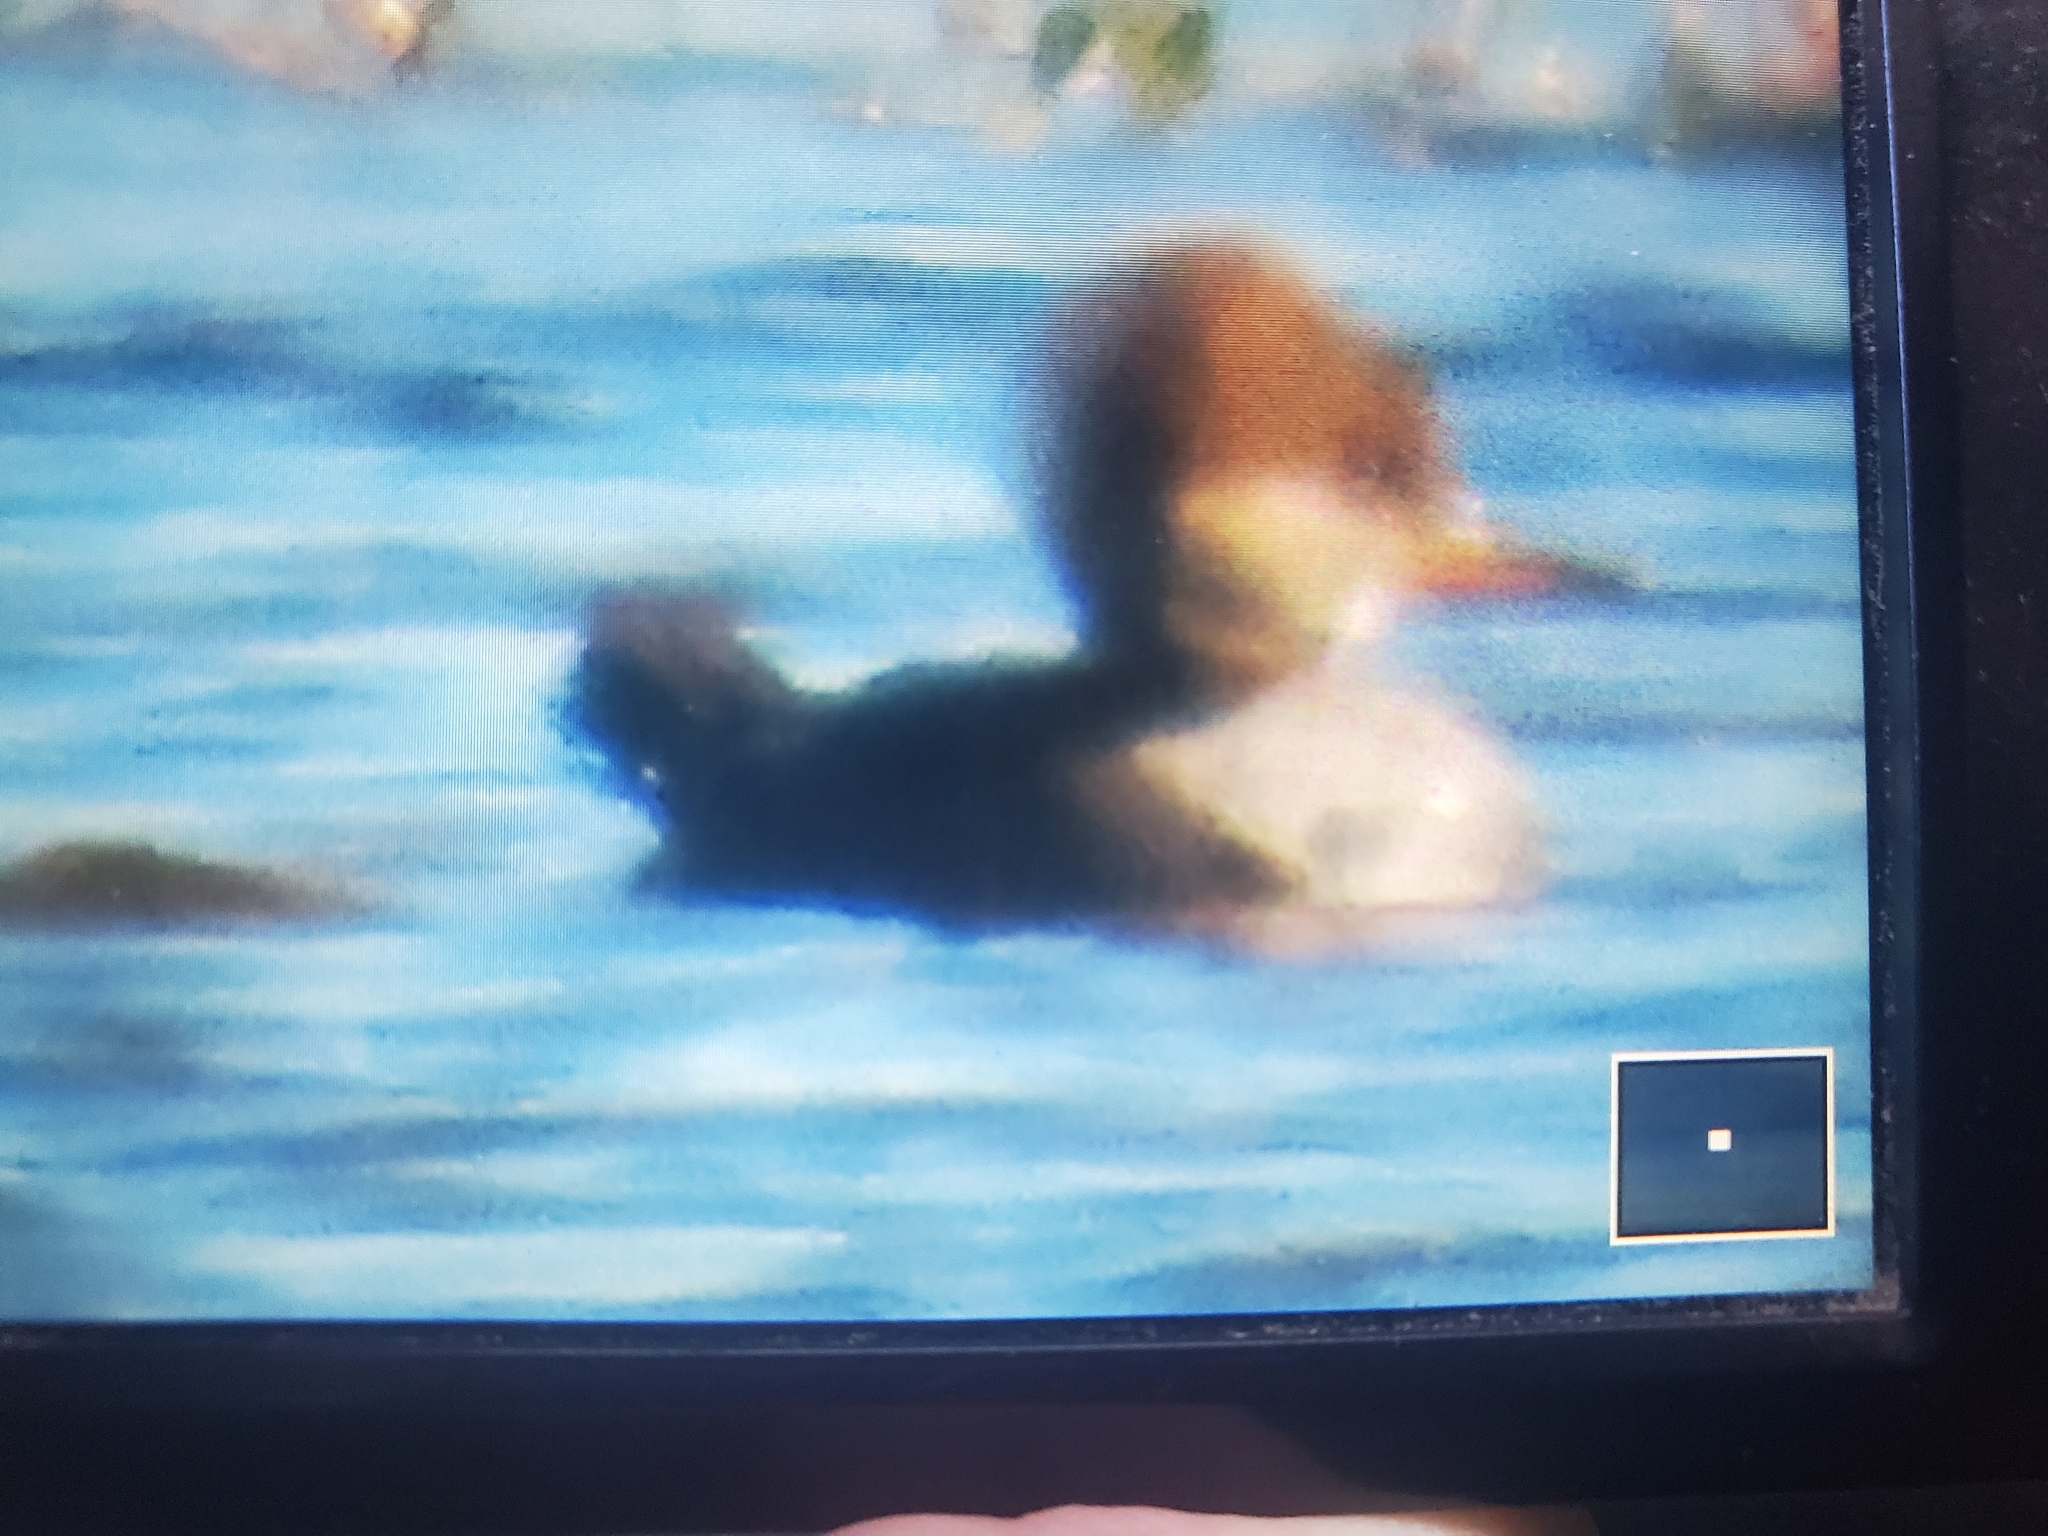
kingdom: Animalia
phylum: Chordata
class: Aves
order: Anseriformes
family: Anatidae
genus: Lophodytes
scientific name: Lophodytes cucullatus
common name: Hooded merganser
